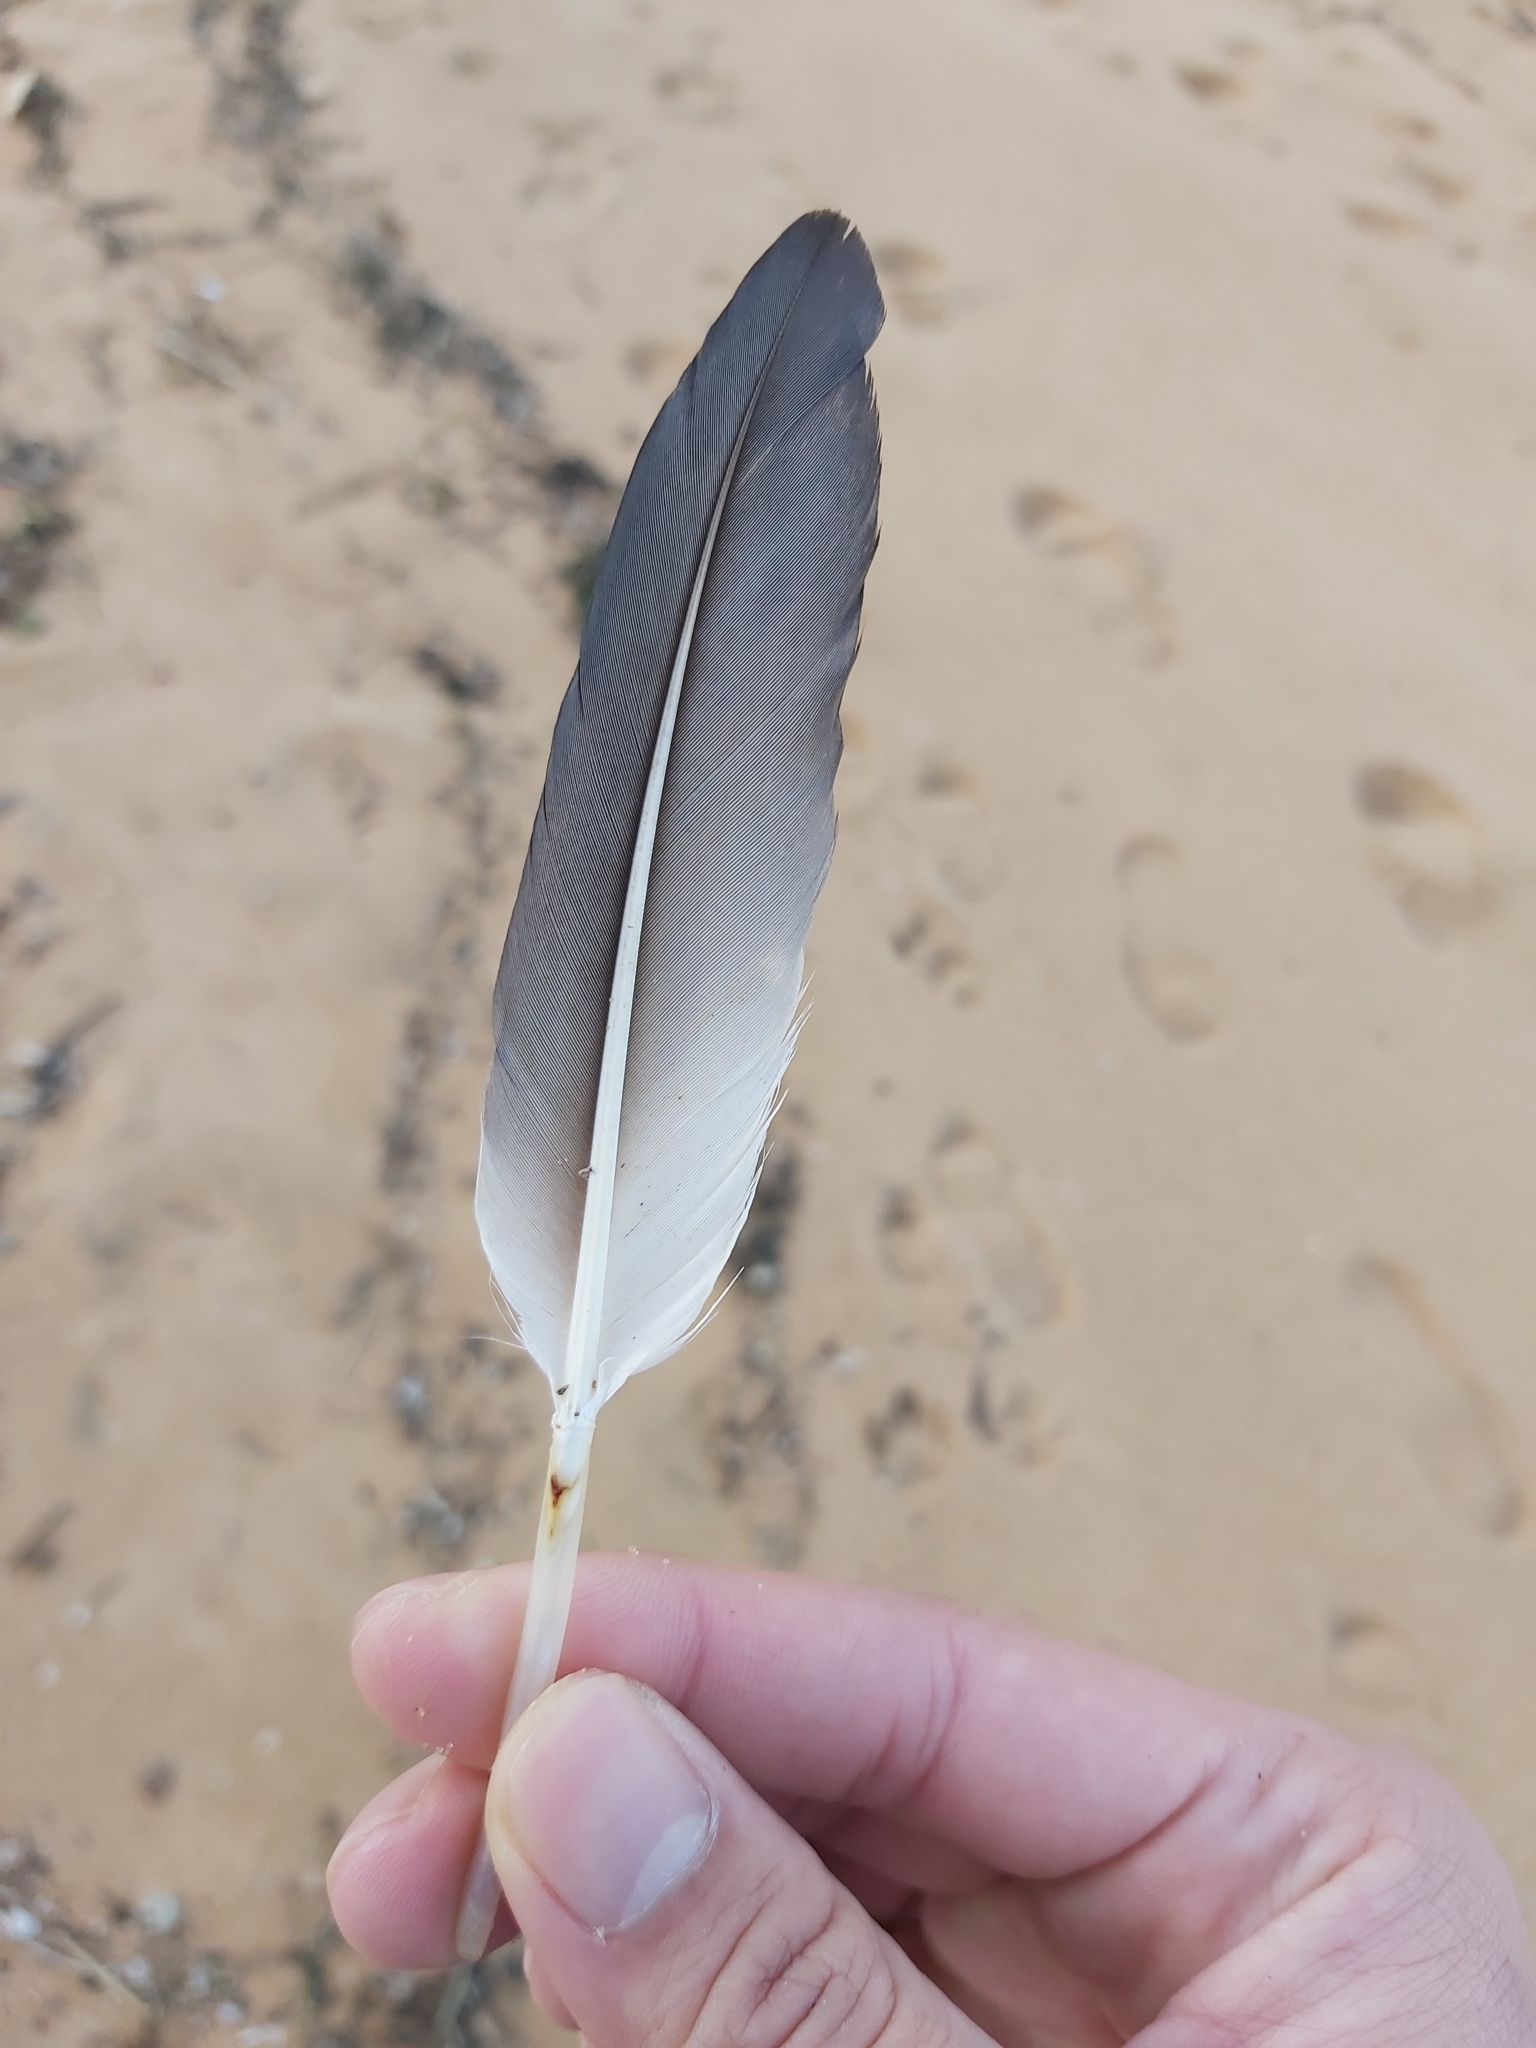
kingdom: Animalia
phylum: Chordata
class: Aves
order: Suliformes
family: Sulidae
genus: Morus
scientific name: Morus serrator
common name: Australasian gannet
